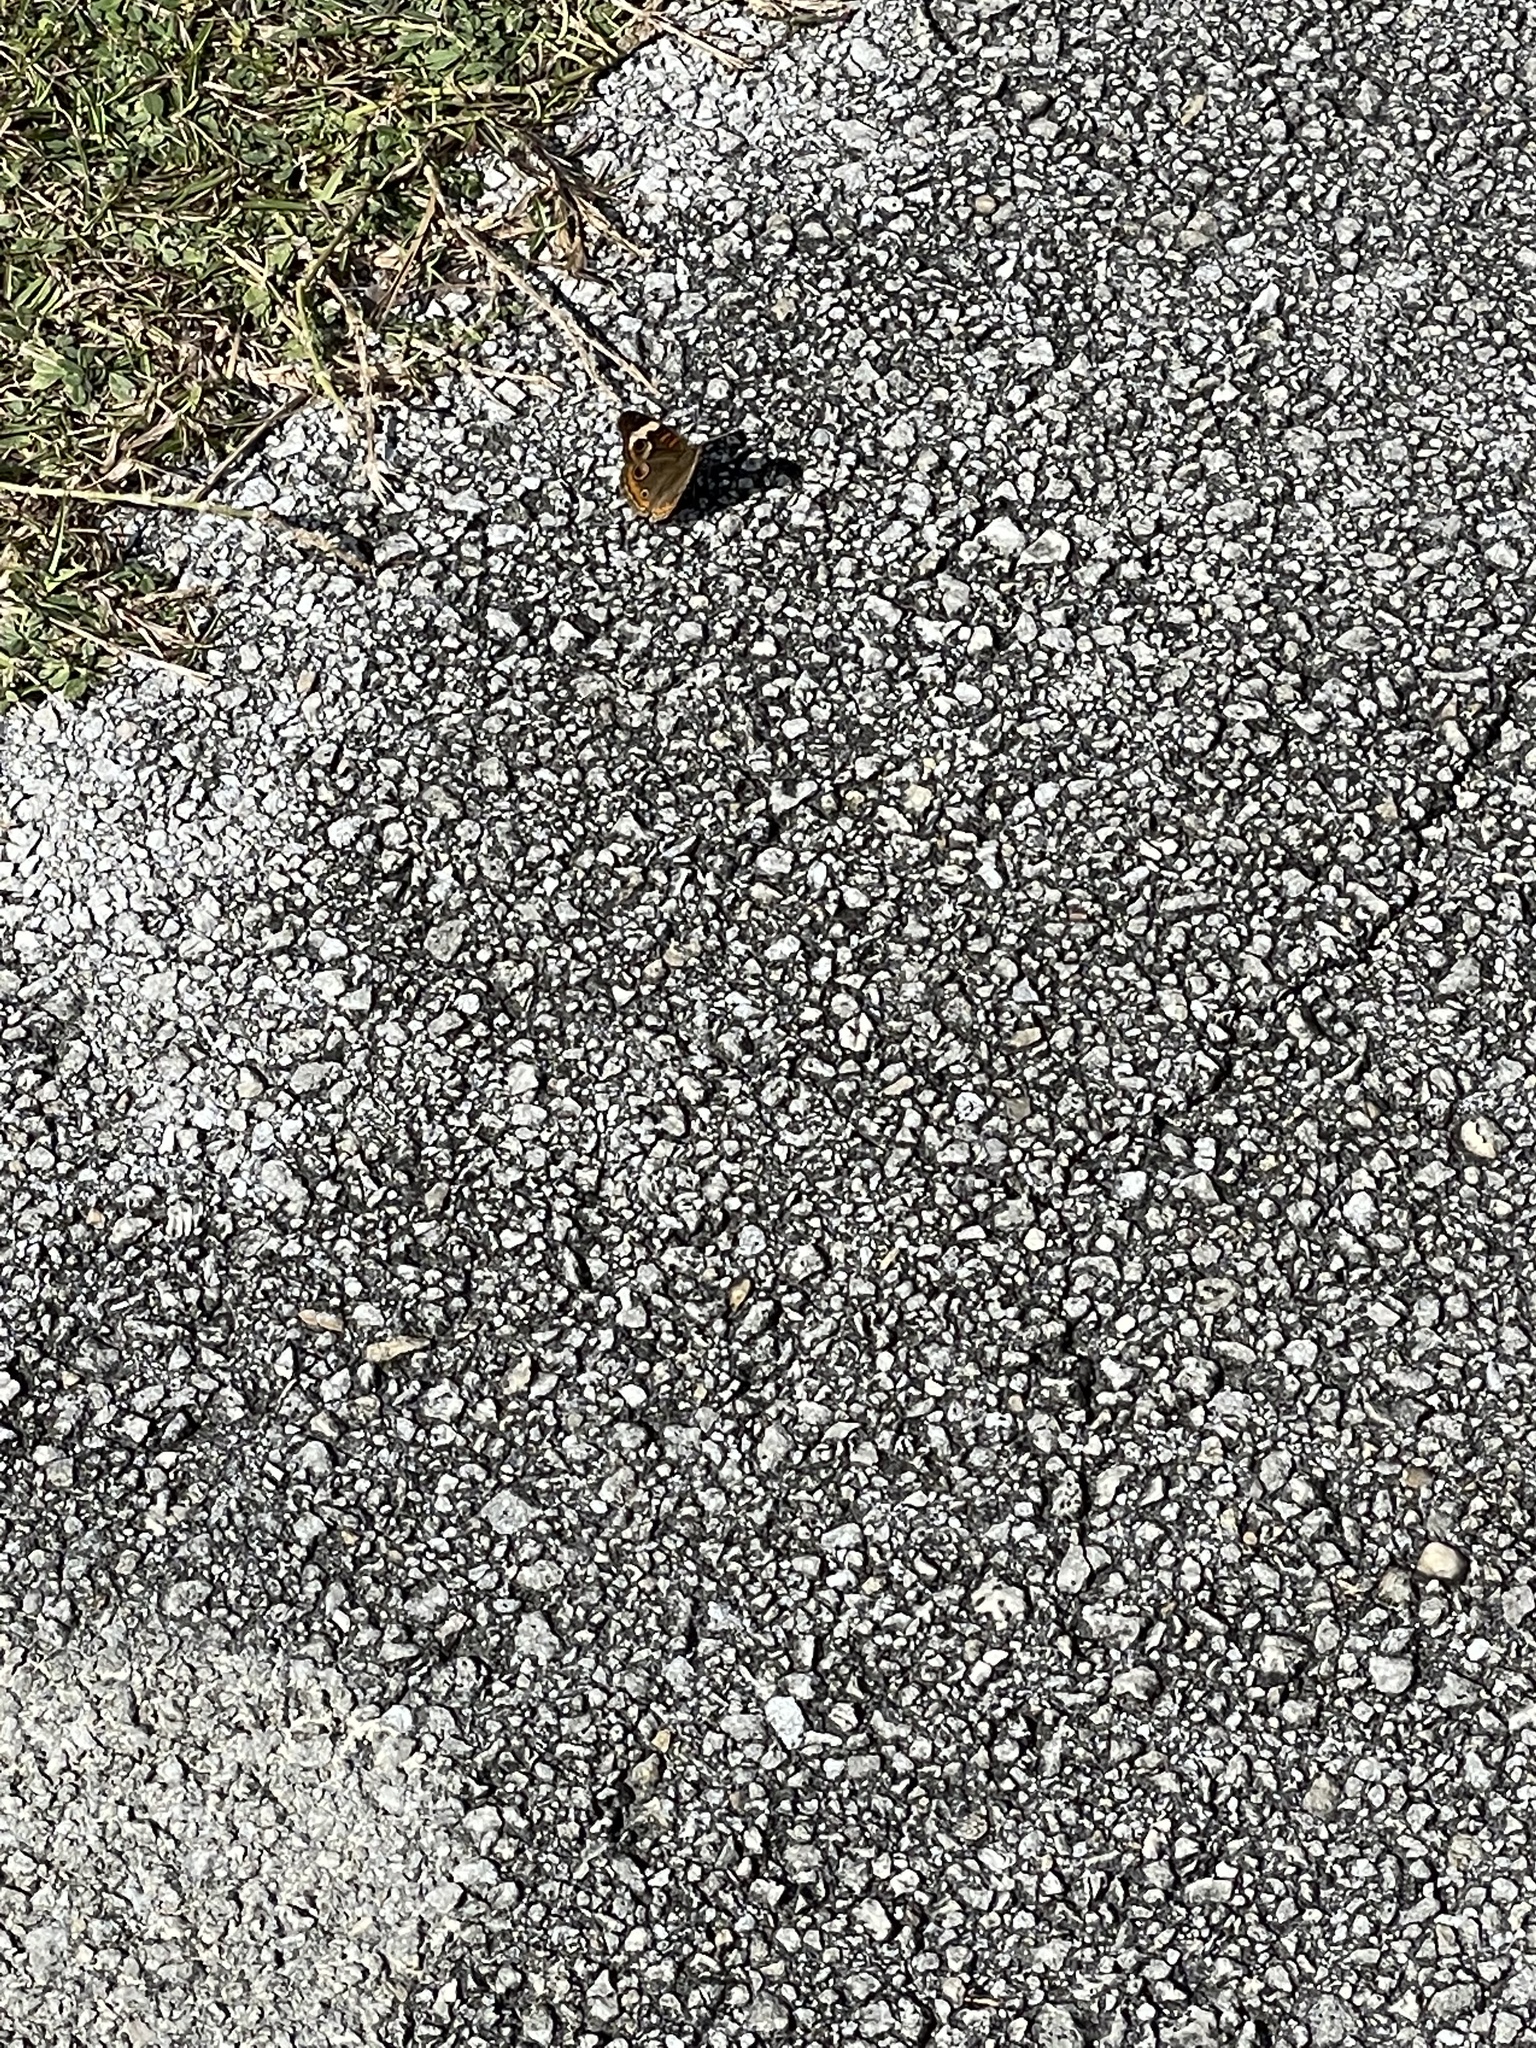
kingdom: Animalia
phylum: Arthropoda
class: Insecta
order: Lepidoptera
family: Nymphalidae
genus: Junonia
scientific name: Junonia coenia
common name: Common buckeye
